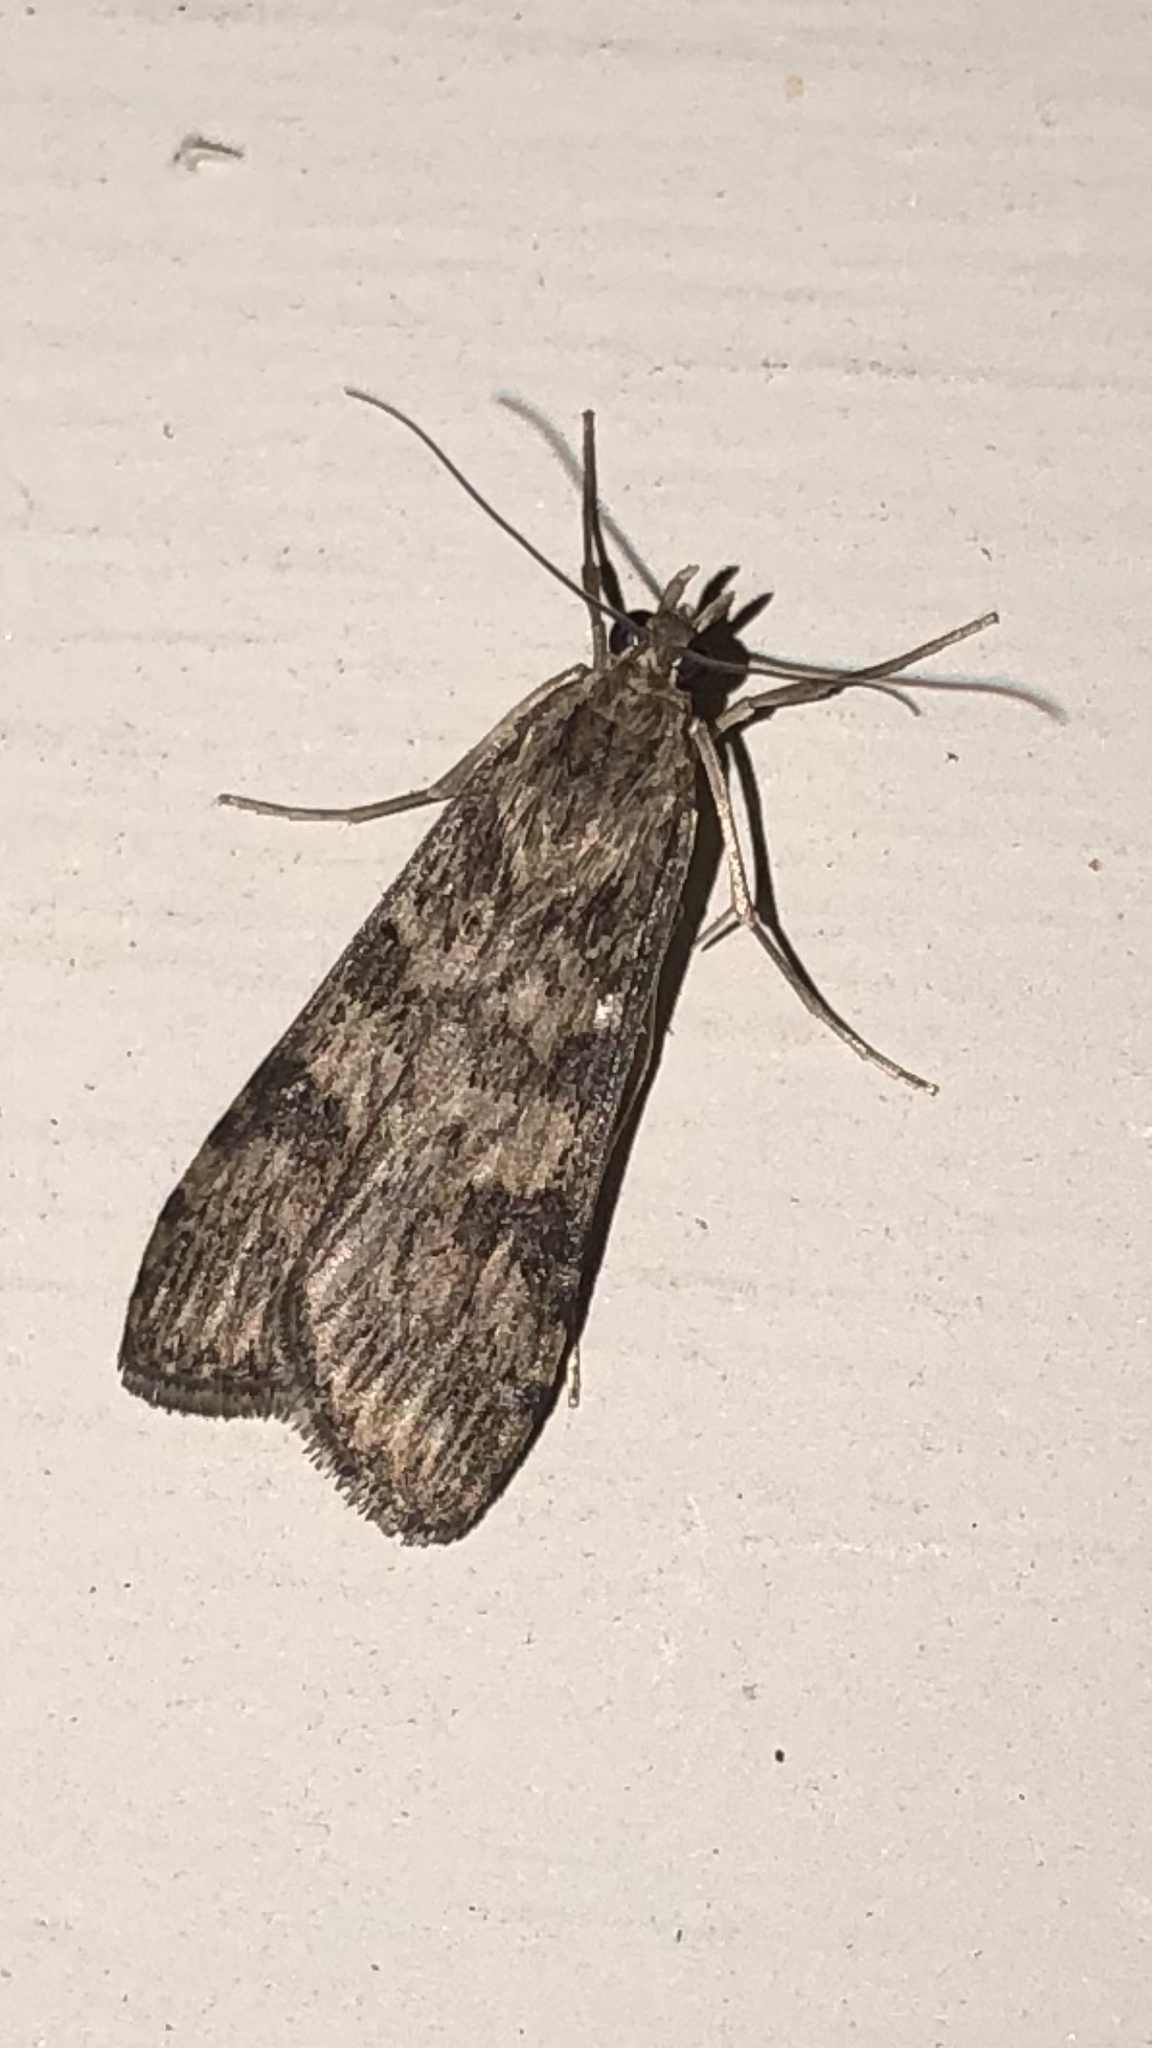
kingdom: Animalia
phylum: Arthropoda
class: Insecta
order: Lepidoptera
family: Crambidae
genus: Nomophila
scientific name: Nomophila nearctica
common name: American rush veneer
